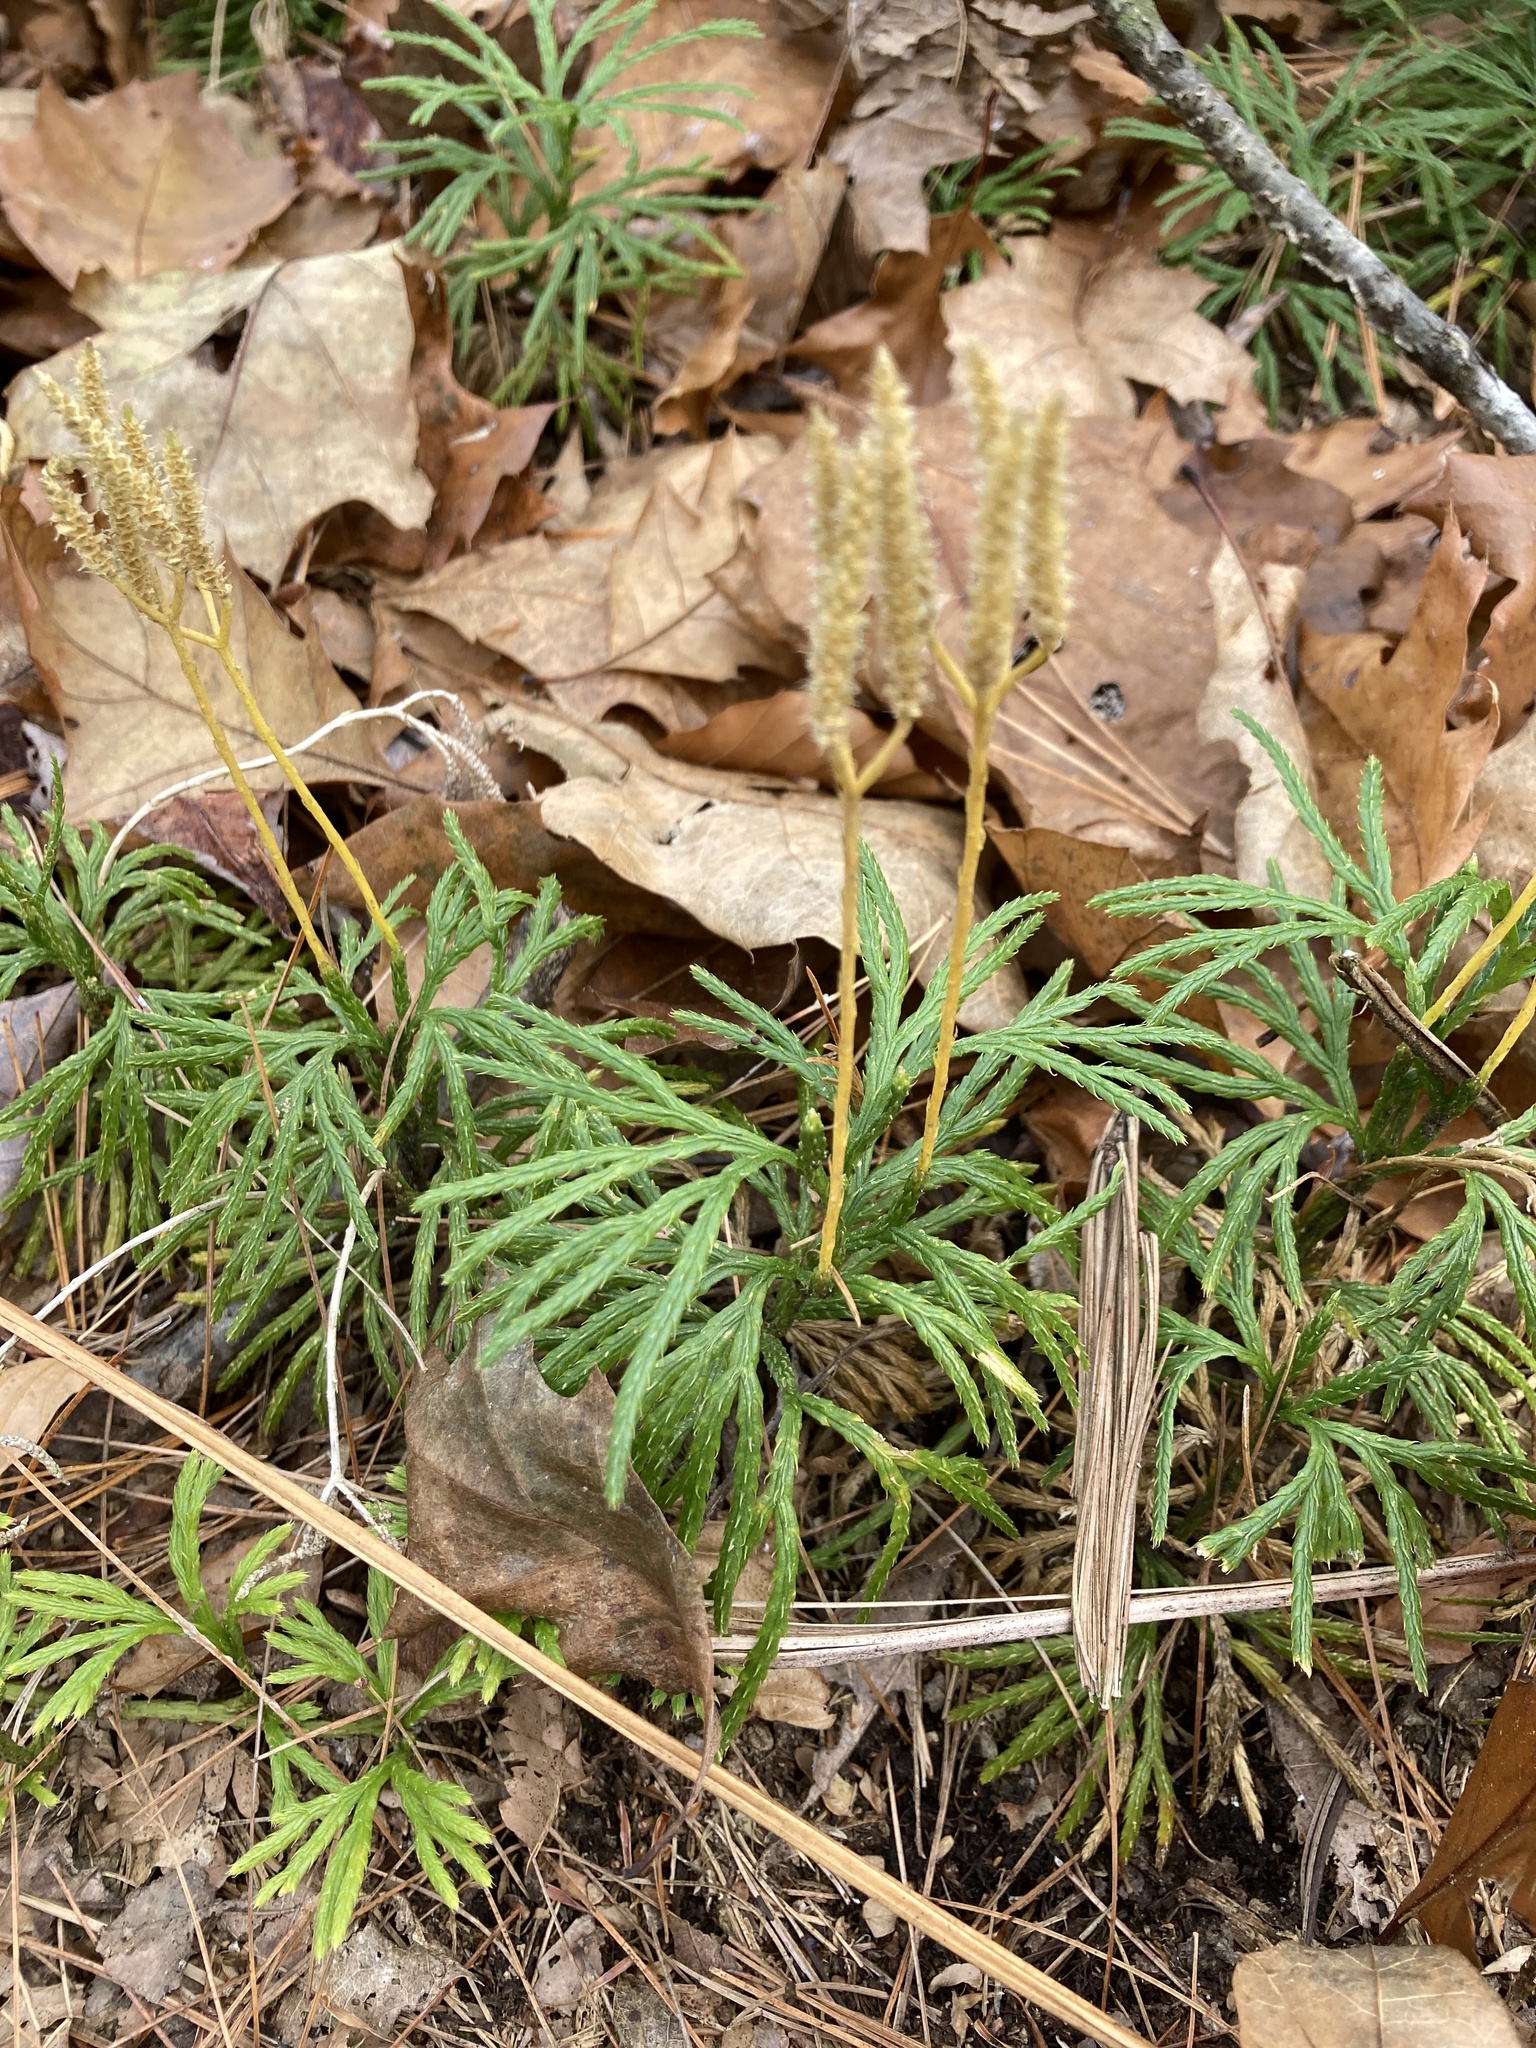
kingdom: Plantae
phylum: Tracheophyta
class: Lycopodiopsida
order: Lycopodiales
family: Lycopodiaceae
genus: Diphasiastrum
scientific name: Diphasiastrum digitatum
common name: Southern running-pine
